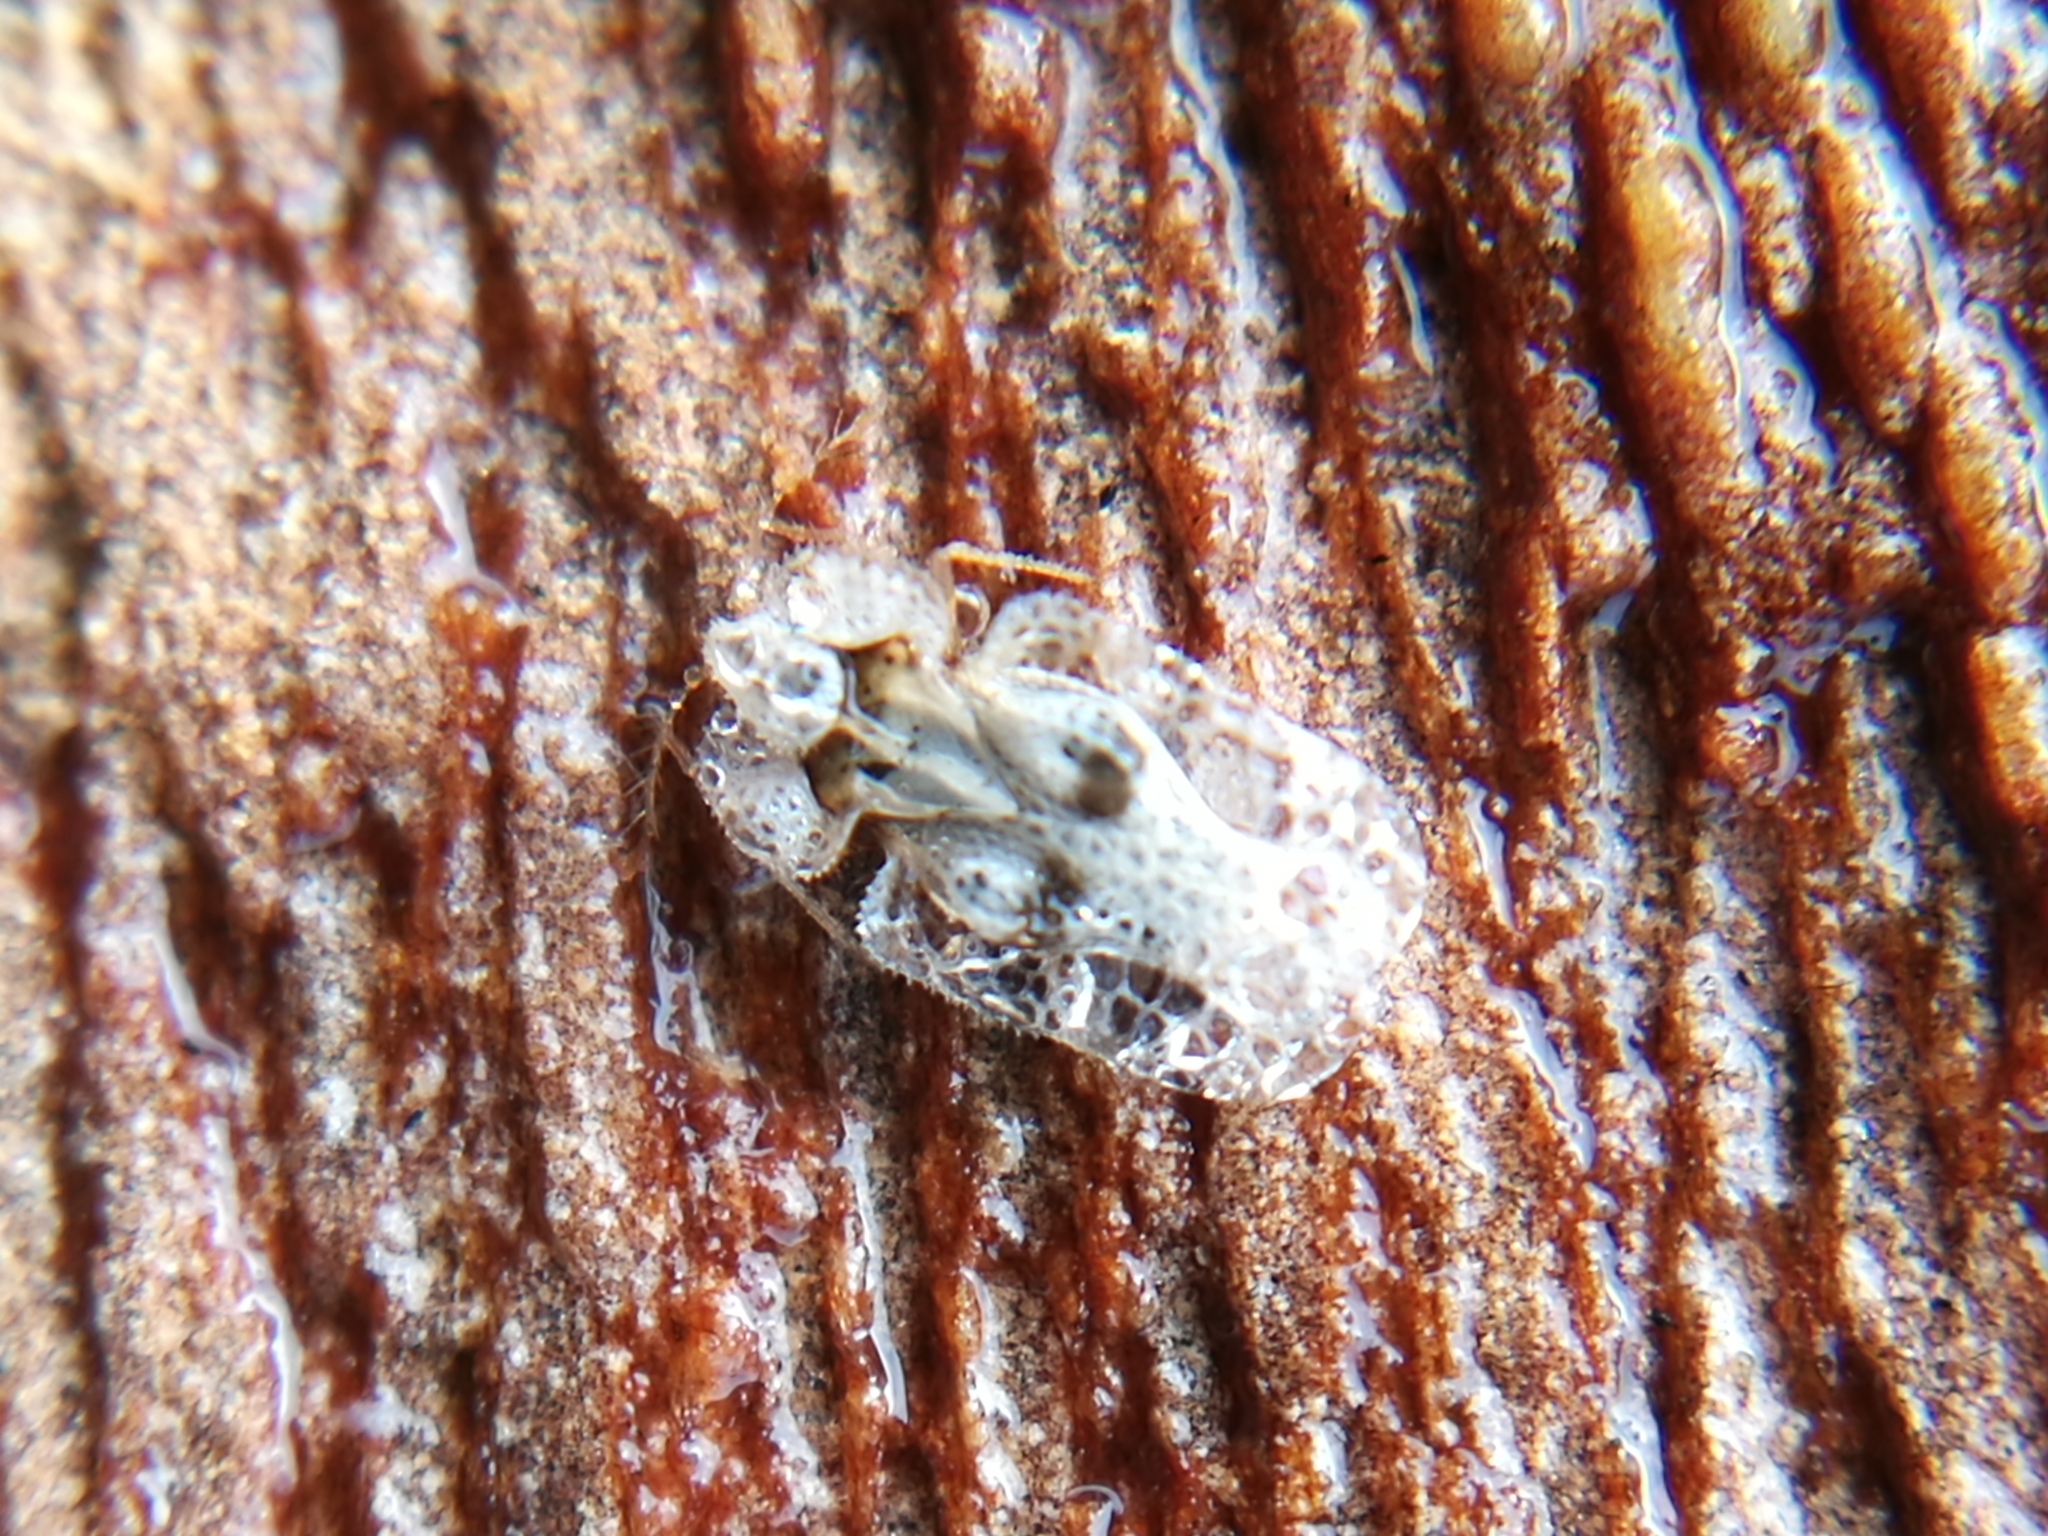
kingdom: Animalia
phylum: Arthropoda
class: Insecta
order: Hemiptera
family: Tingidae
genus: Corythucha
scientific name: Corythucha ciliata
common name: Sycamore lace bug
